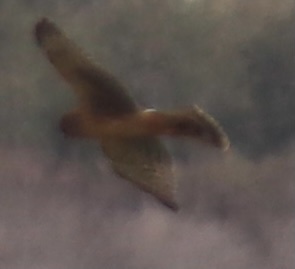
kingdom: Animalia
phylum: Chordata
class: Aves
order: Accipitriformes
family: Accipitridae
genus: Circus
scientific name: Circus cyaneus
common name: Hen harrier
